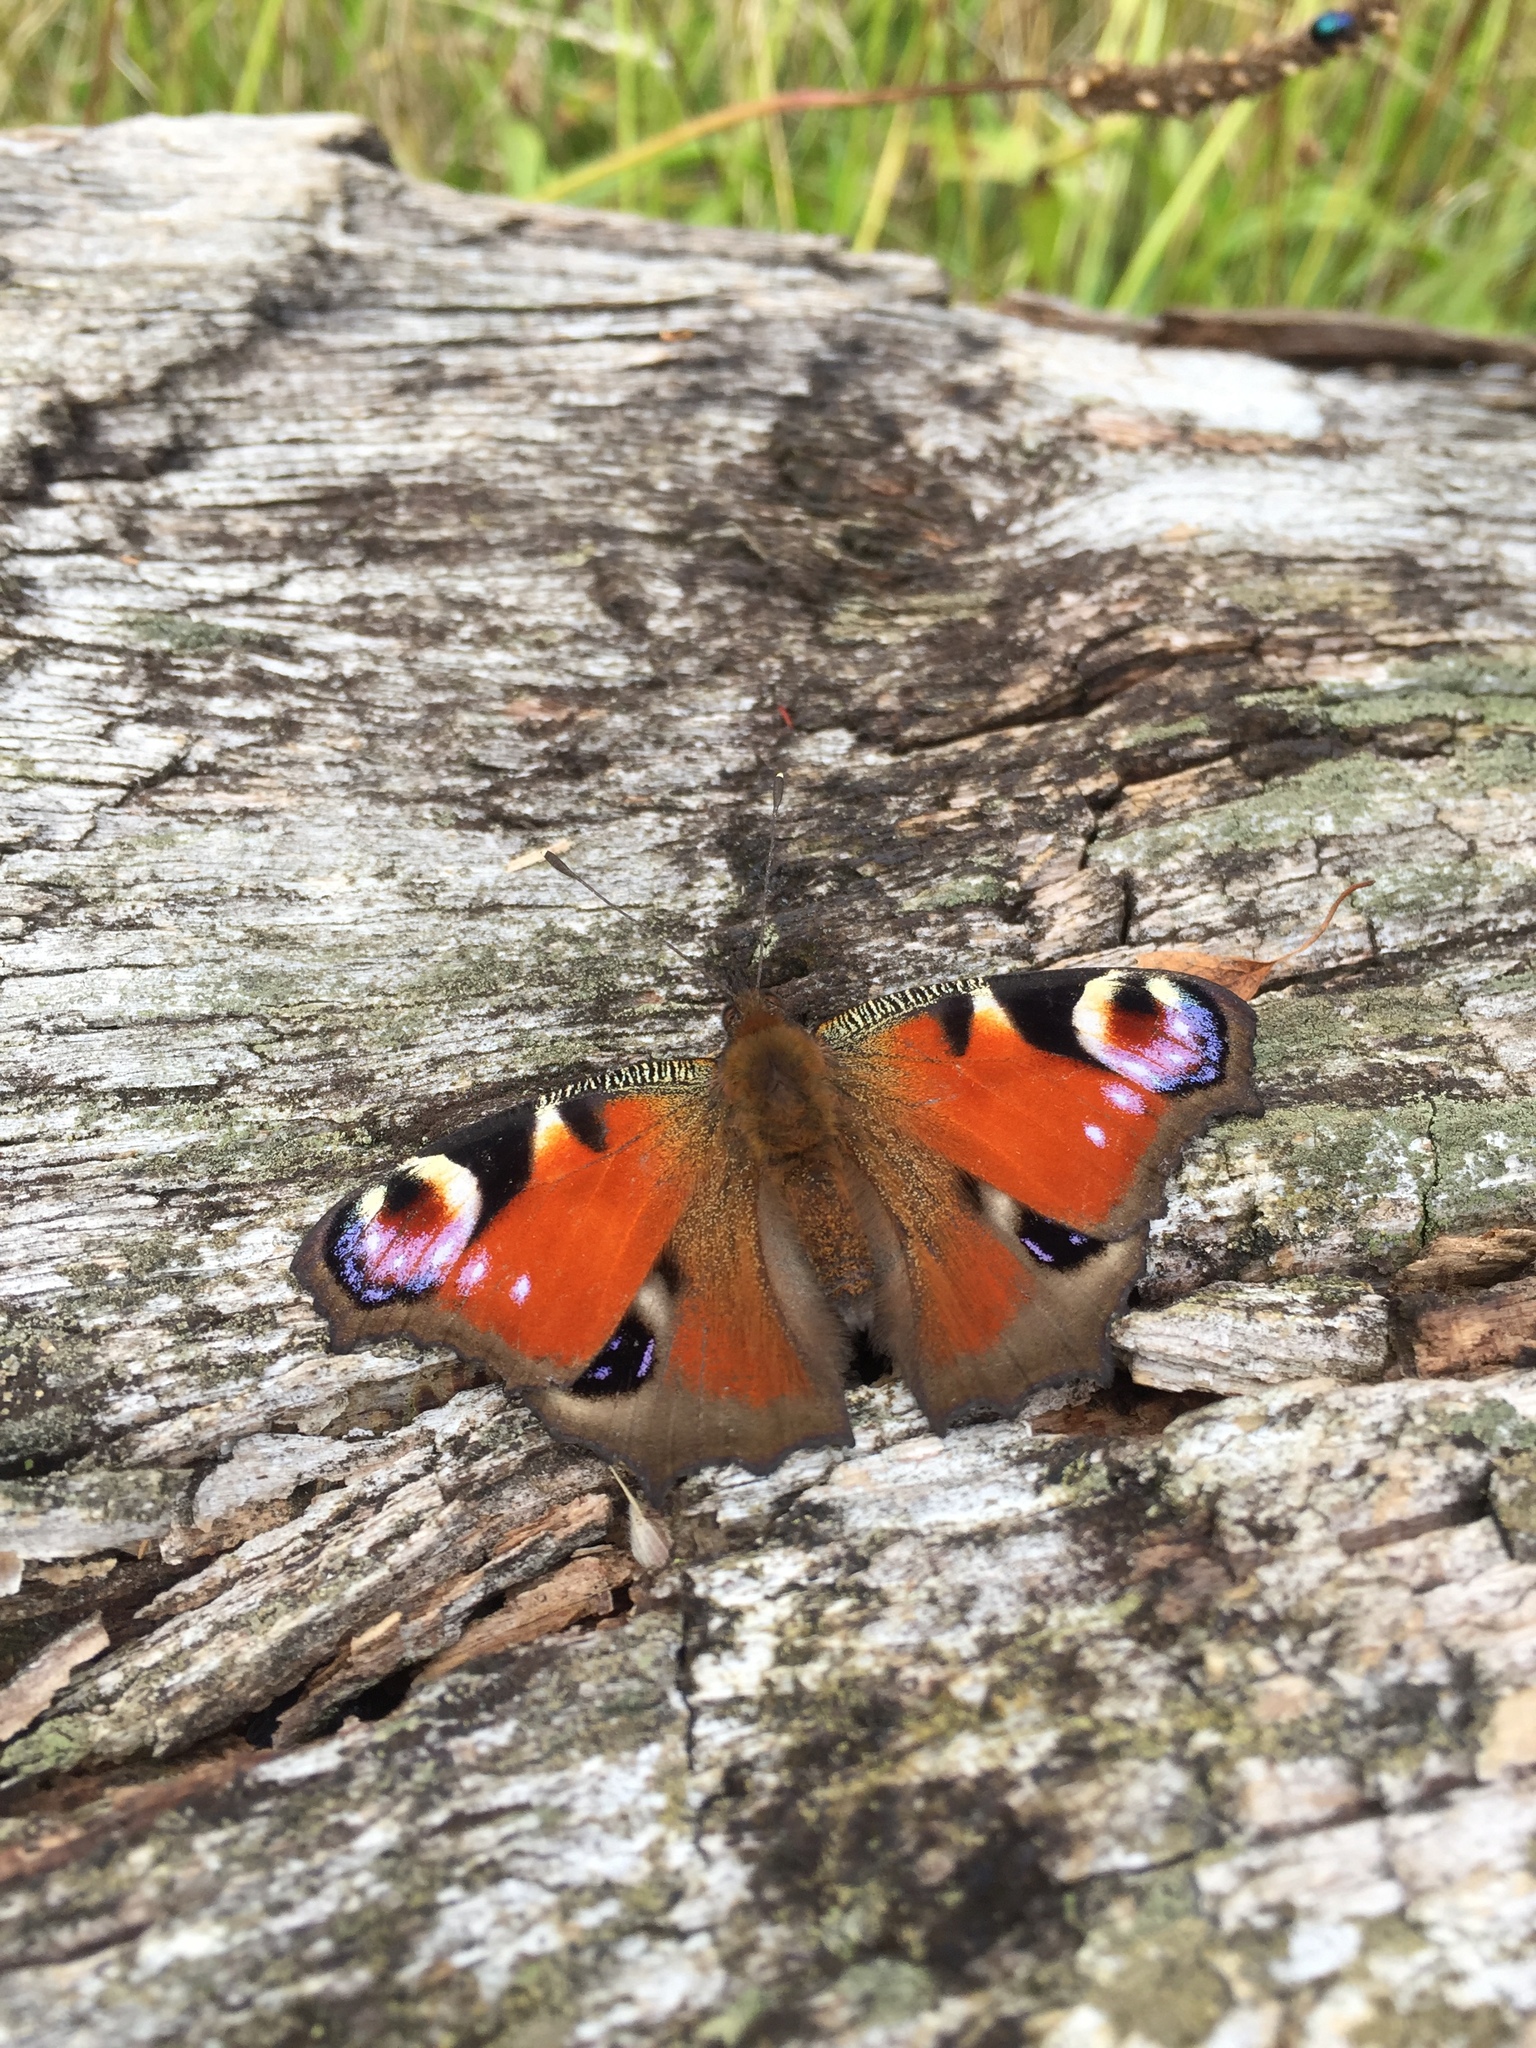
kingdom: Animalia
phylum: Arthropoda
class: Insecta
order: Lepidoptera
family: Nymphalidae
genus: Aglais
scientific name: Aglais io
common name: Peacock
